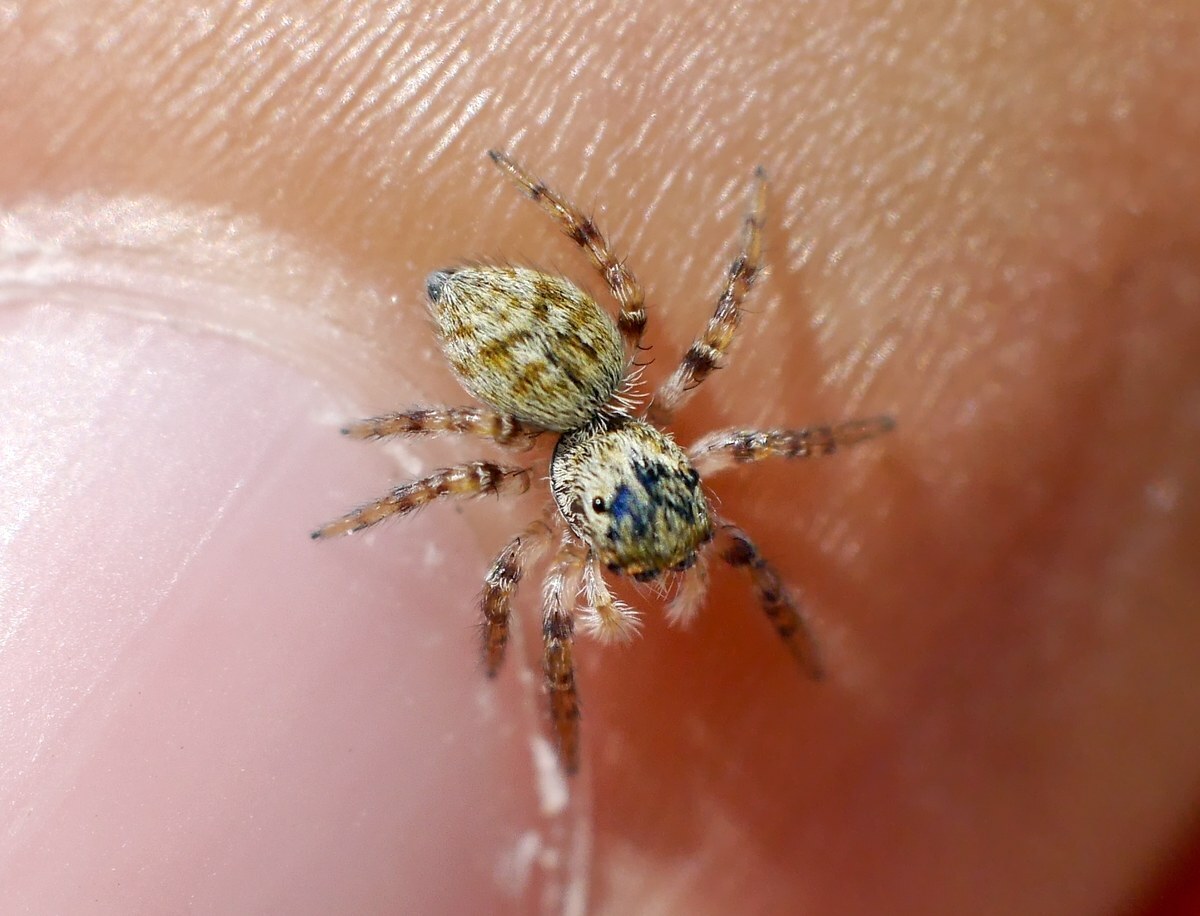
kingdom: Animalia
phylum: Arthropoda
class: Arachnida
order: Araneae
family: Salticidae
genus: Carrhotus
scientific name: Carrhotus xanthogramma
